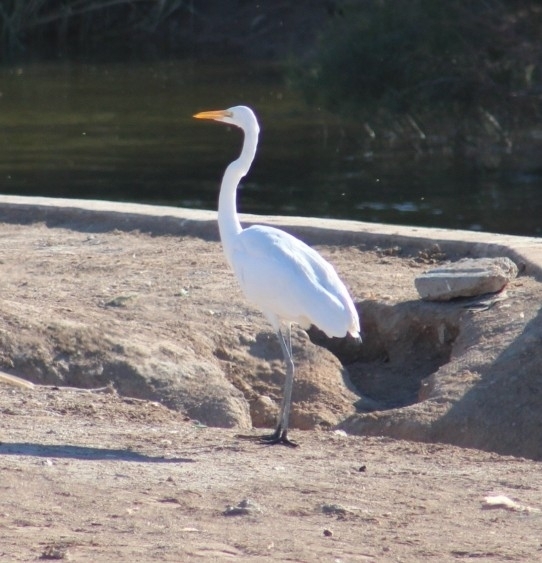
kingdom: Animalia
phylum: Chordata
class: Aves
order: Pelecaniformes
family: Ardeidae
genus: Ardea
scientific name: Ardea alba
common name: Great egret
